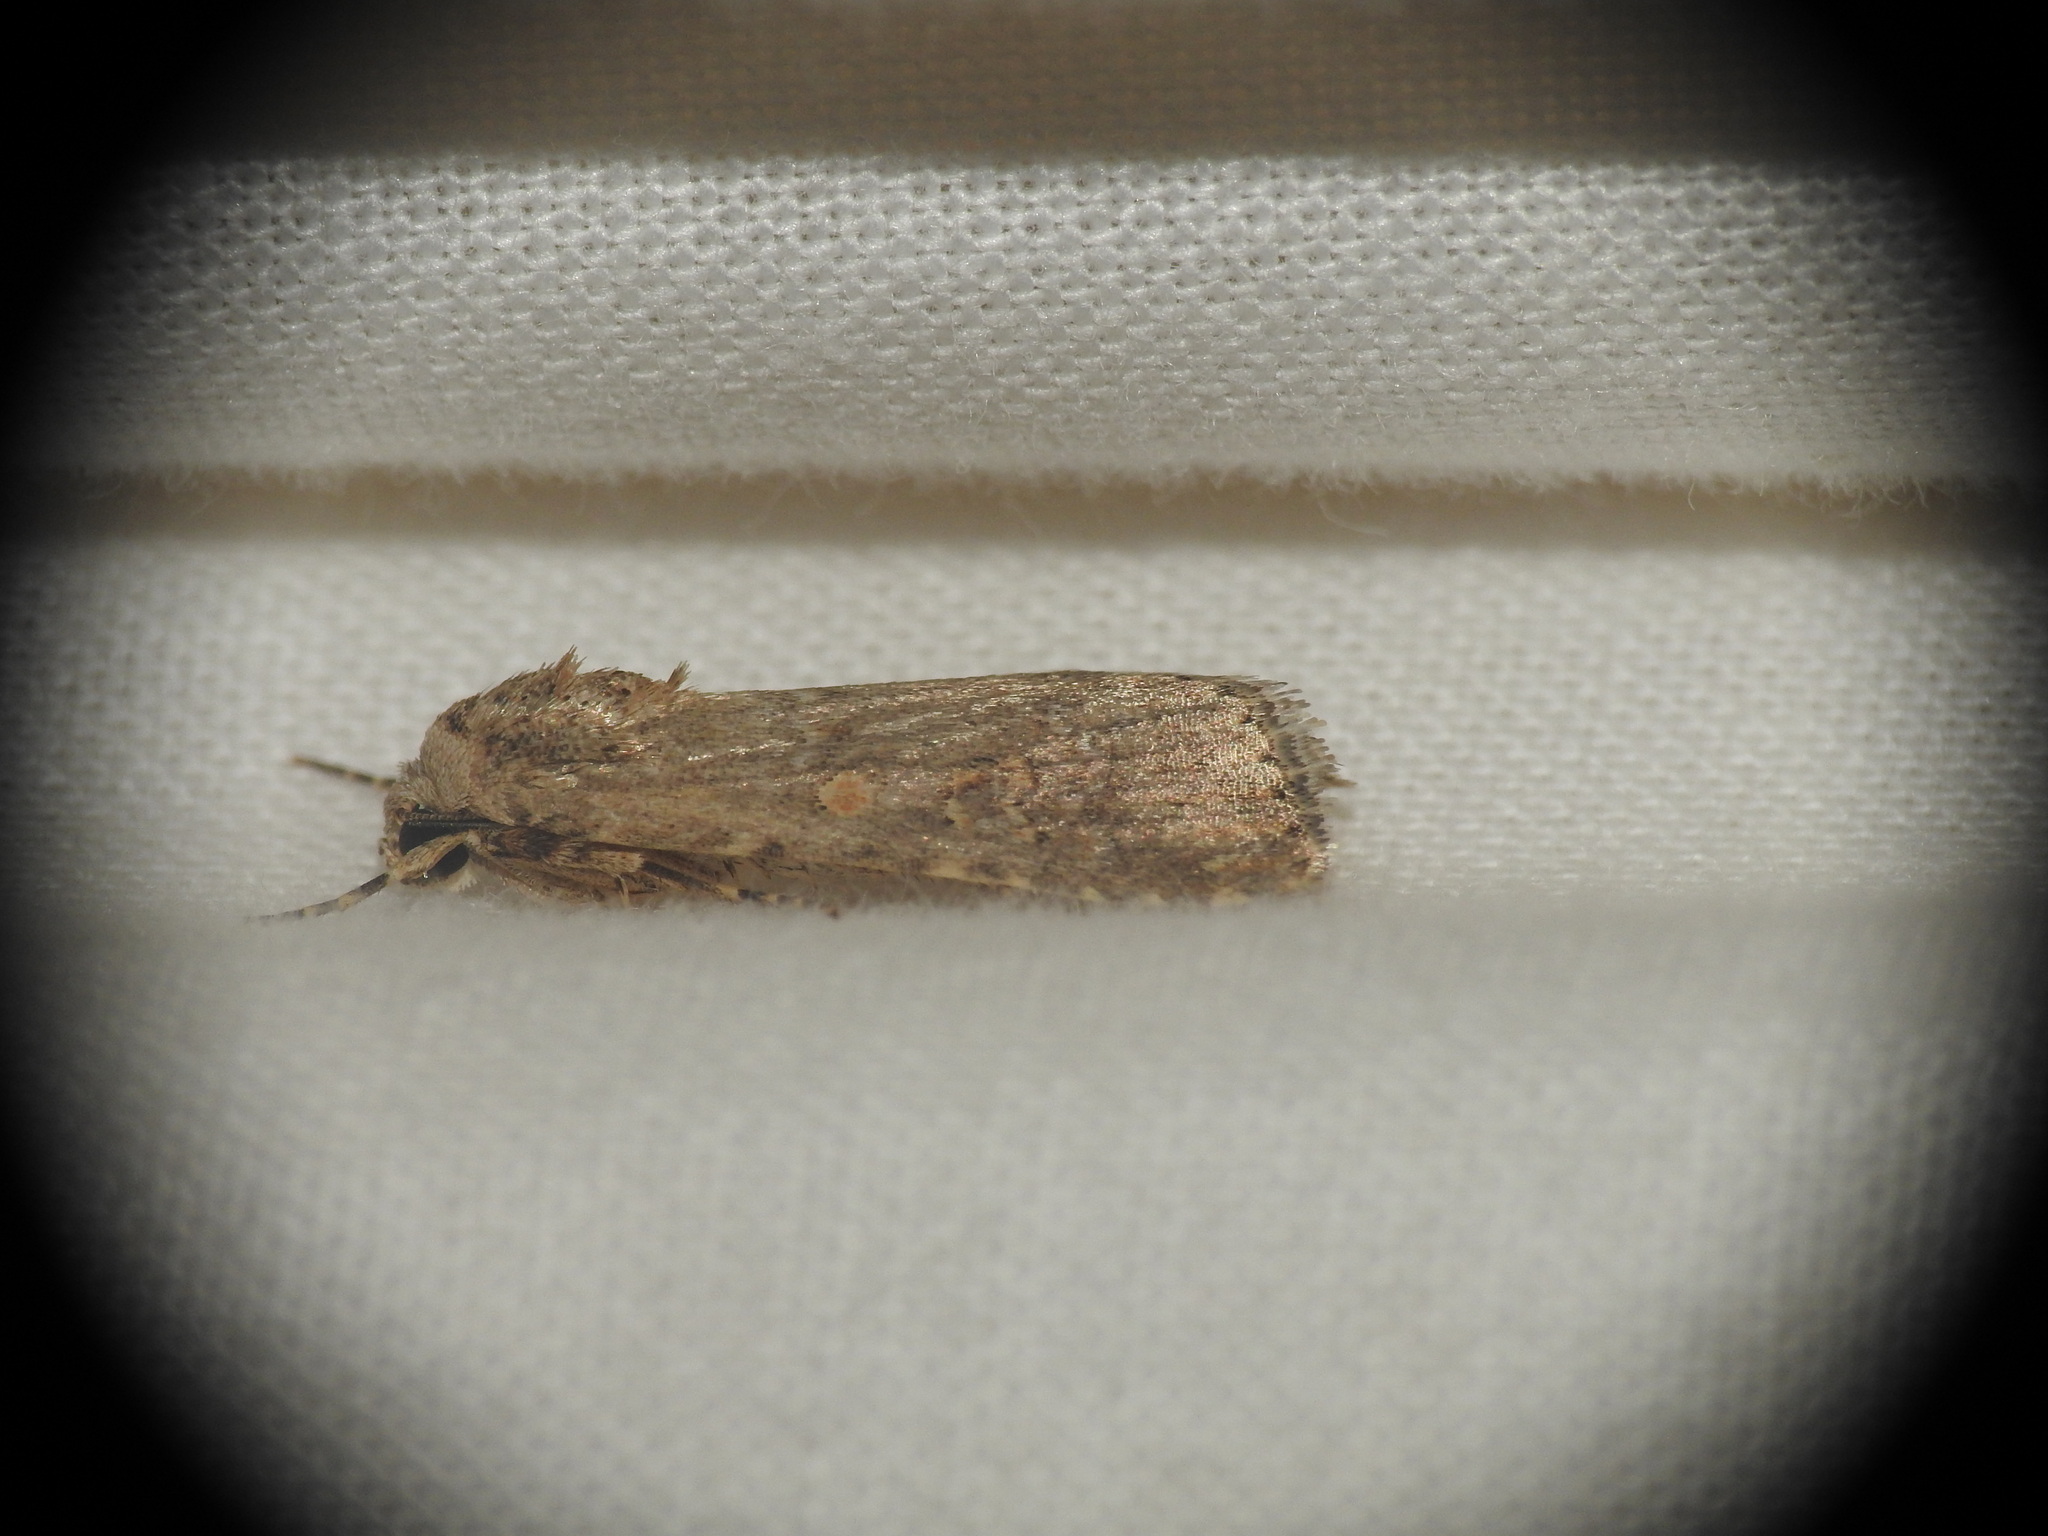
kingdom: Animalia
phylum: Arthropoda
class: Insecta
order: Lepidoptera
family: Noctuidae
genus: Spodoptera
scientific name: Spodoptera exigua
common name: Beet armyworm
